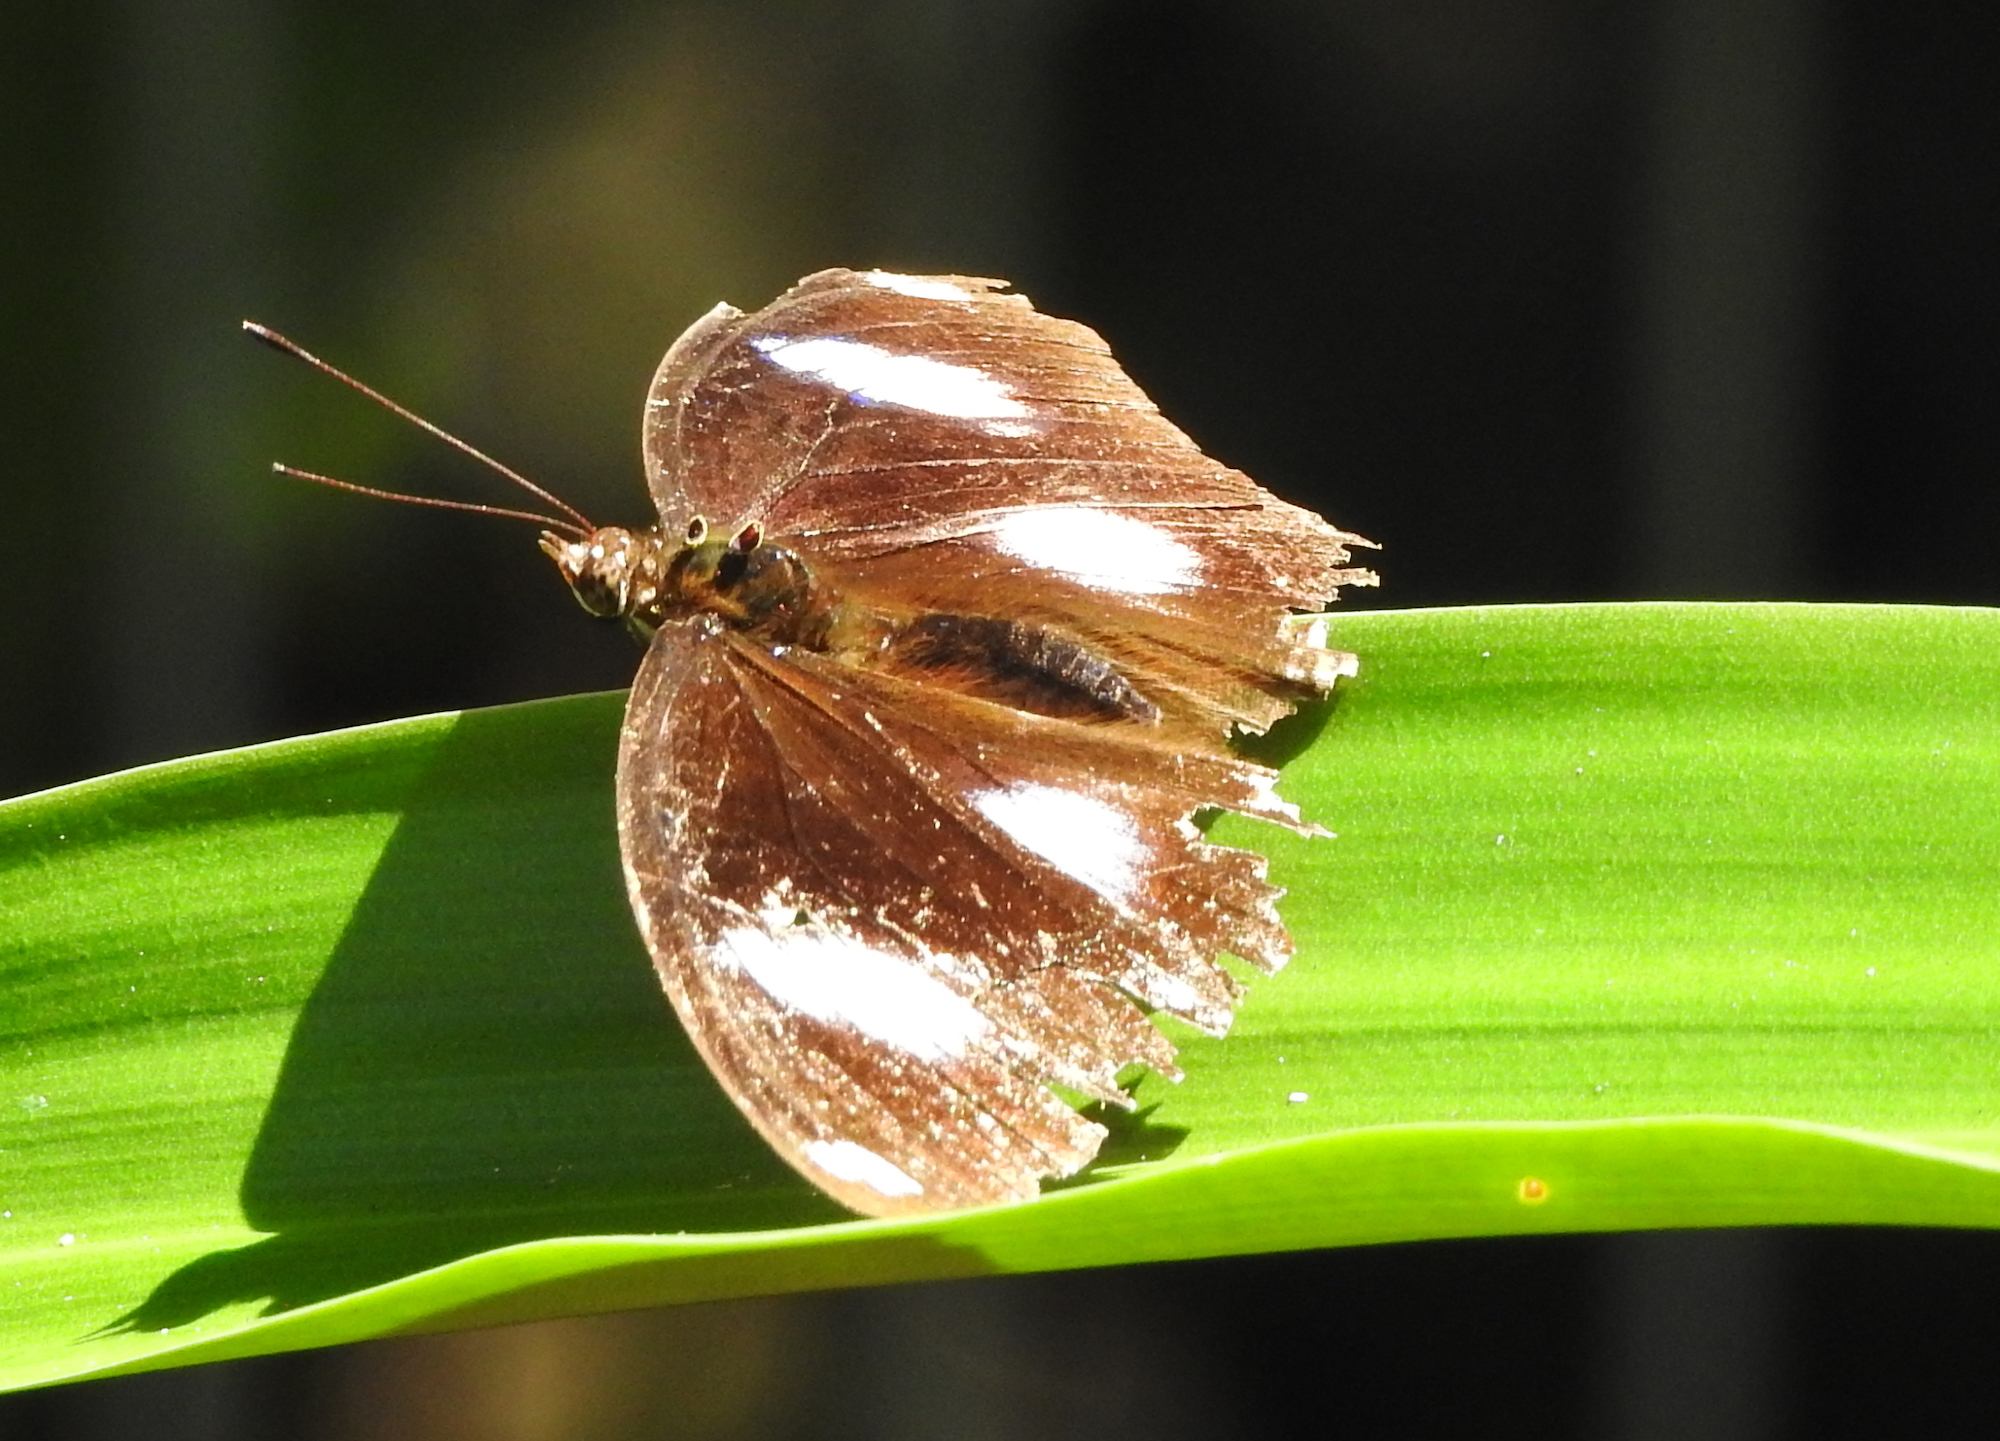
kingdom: Animalia
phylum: Arthropoda
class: Insecta
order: Lepidoptera
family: Nymphalidae
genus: Hypolimnas
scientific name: Hypolimnas bolina
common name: Great eggfly
